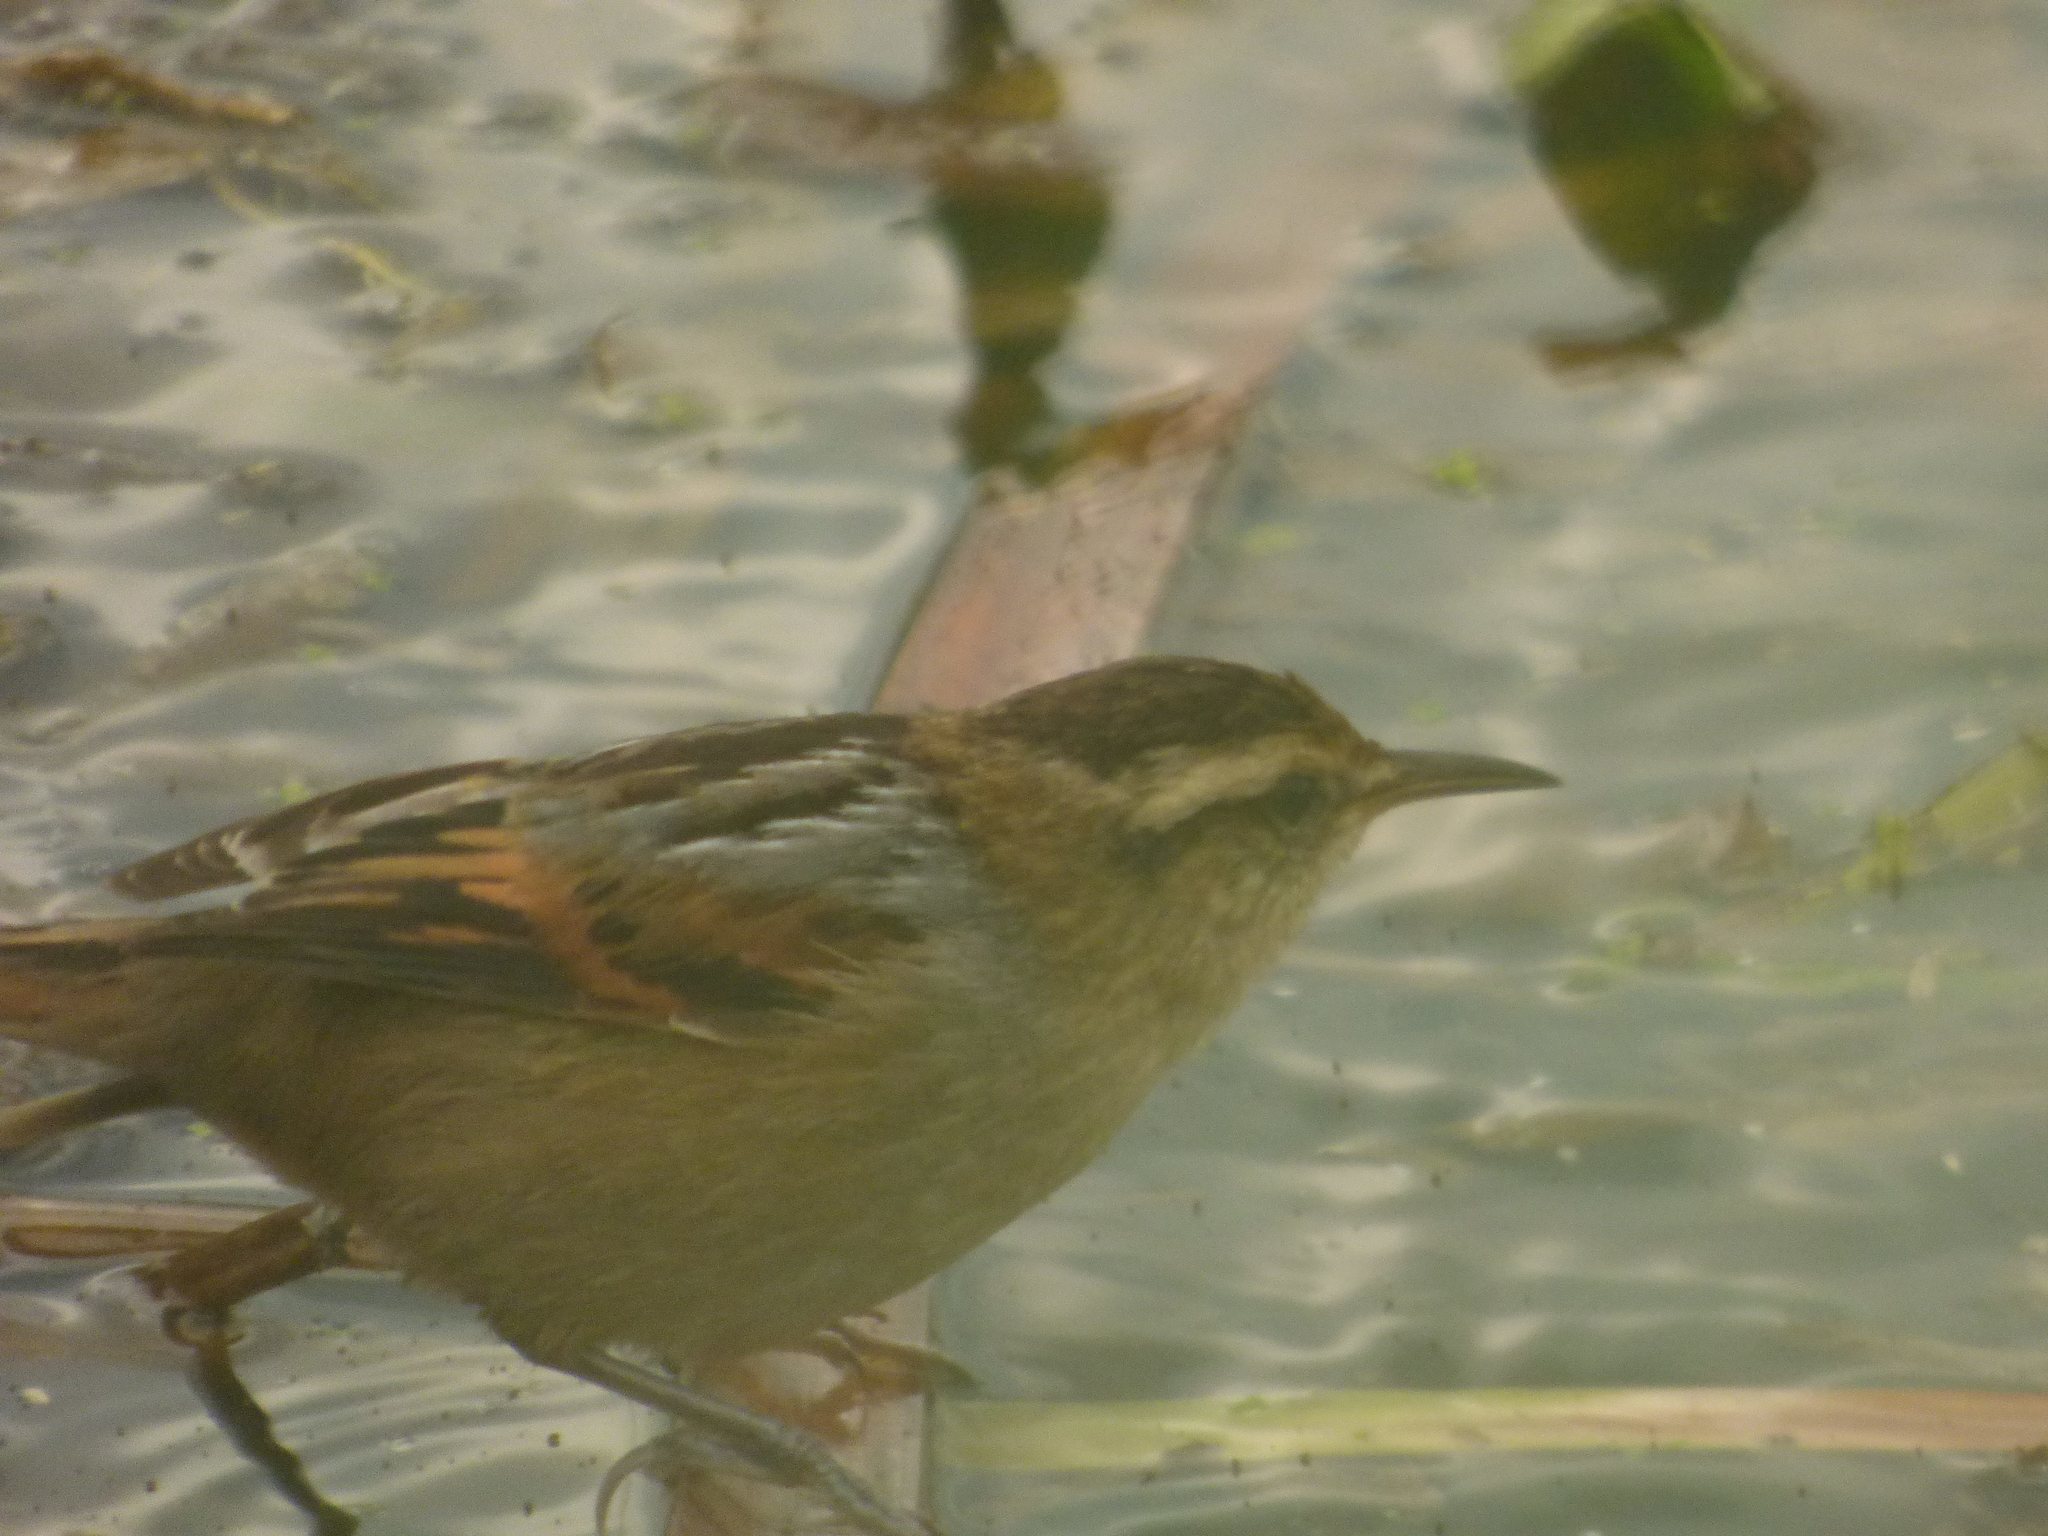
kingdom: Animalia
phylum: Chordata
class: Aves
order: Passeriformes
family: Furnariidae
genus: Phleocryptes
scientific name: Phleocryptes melanops
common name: Wren-like rushbird
